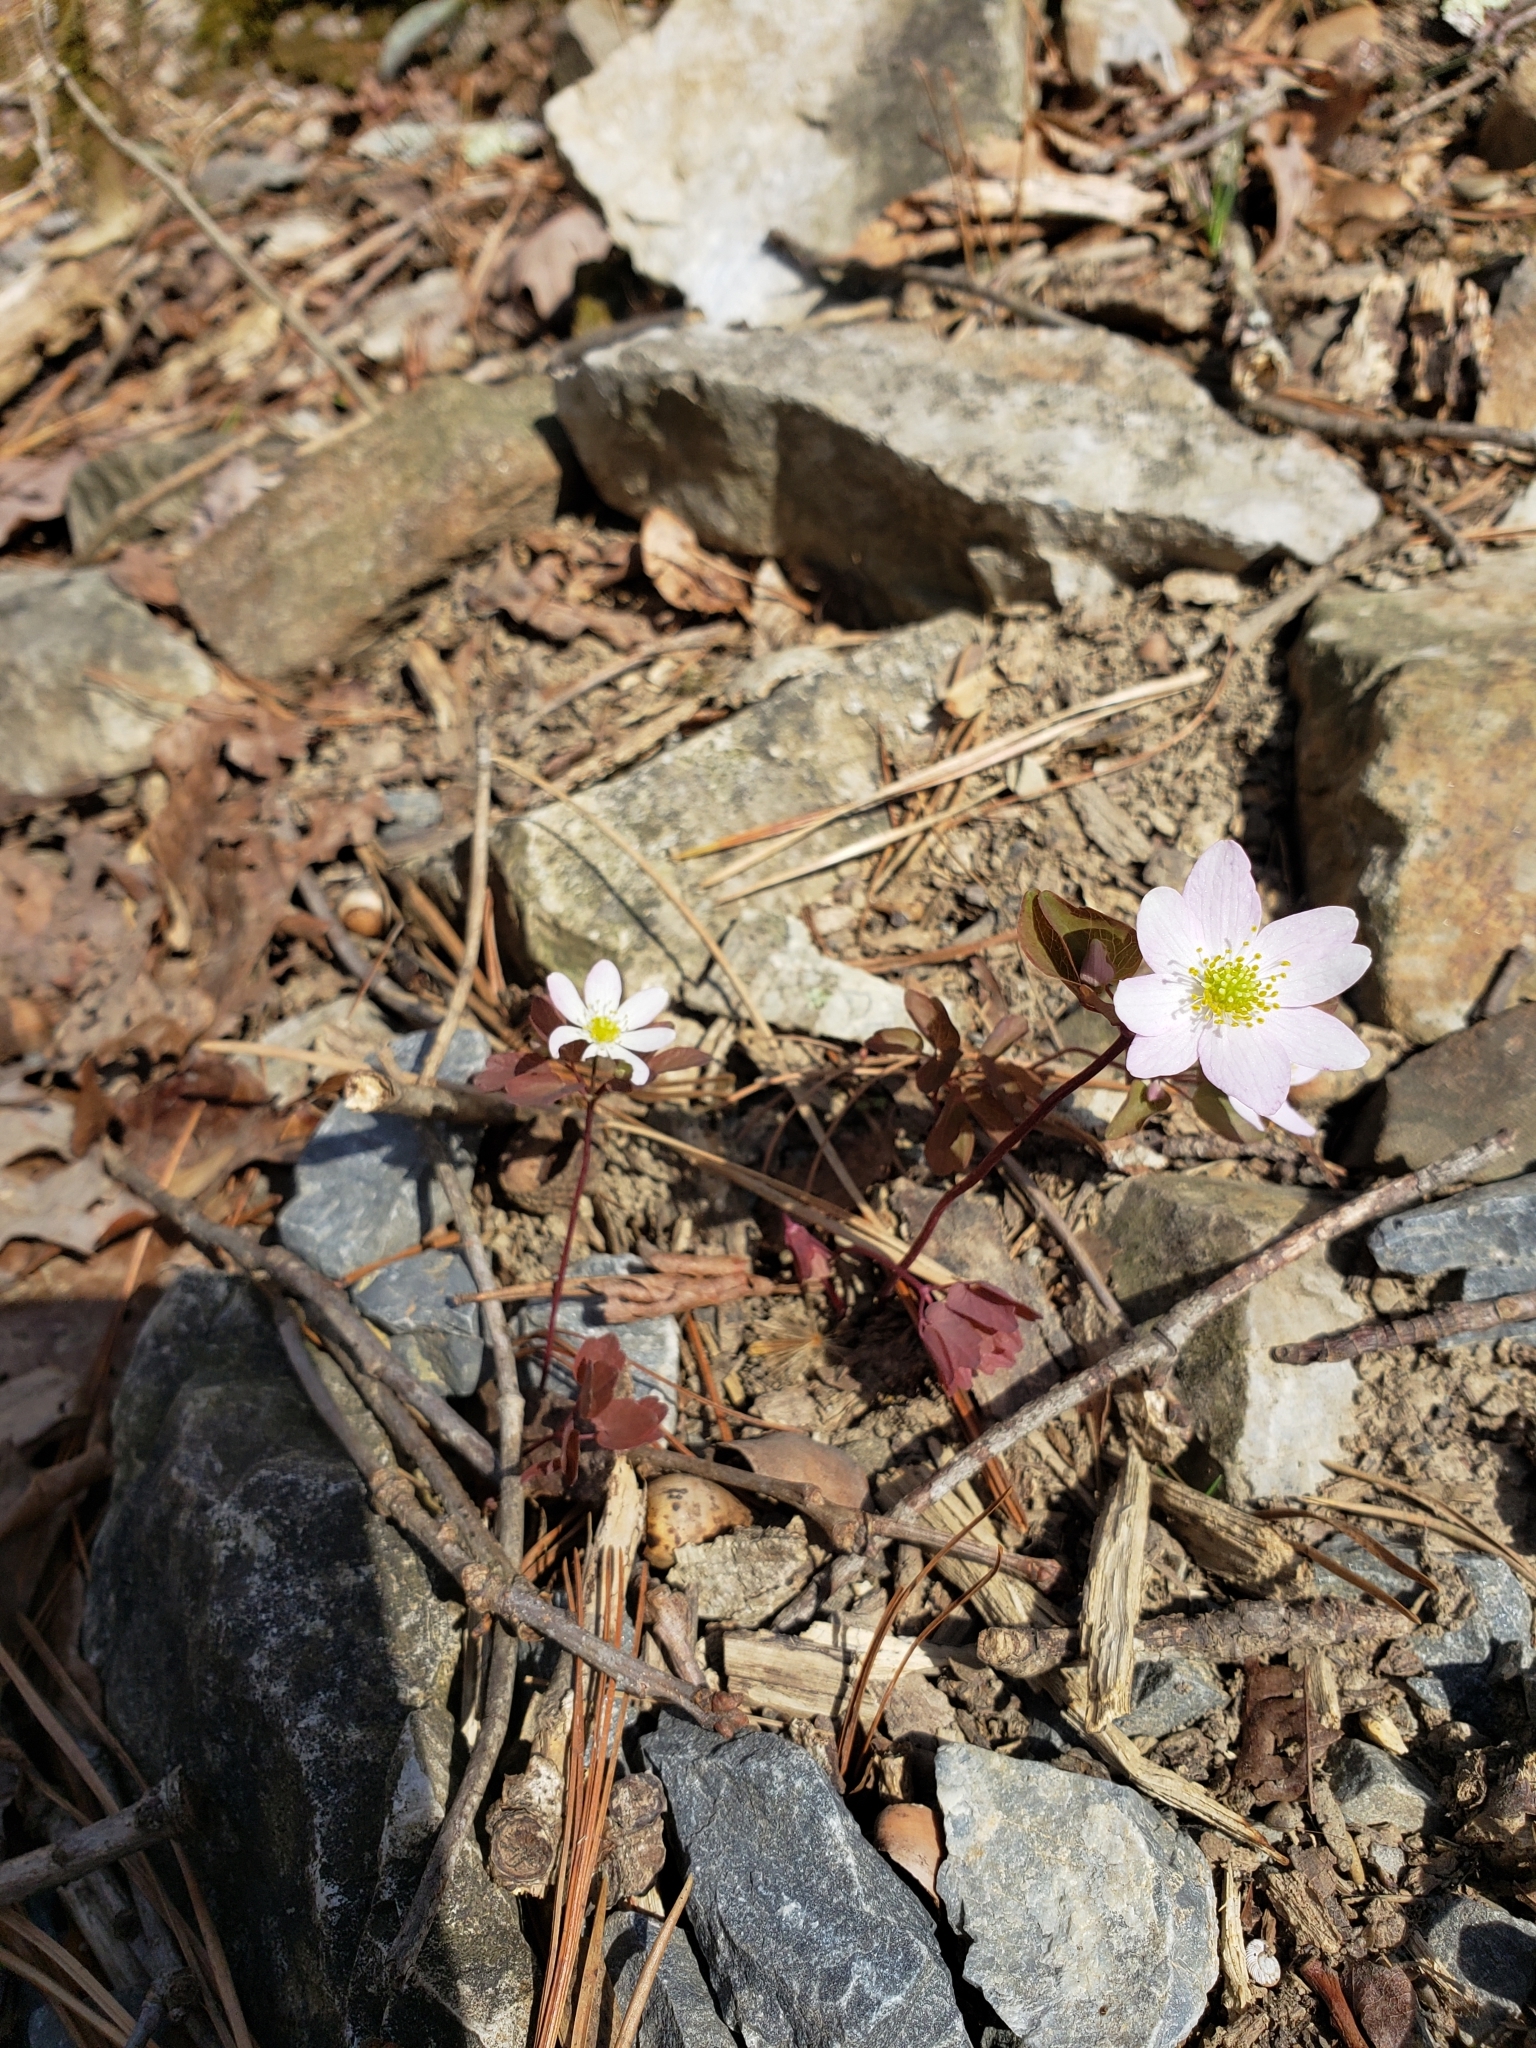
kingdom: Plantae
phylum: Tracheophyta
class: Magnoliopsida
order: Ranunculales
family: Ranunculaceae
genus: Thalictrum
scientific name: Thalictrum thalictroides
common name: Rue-anemone
